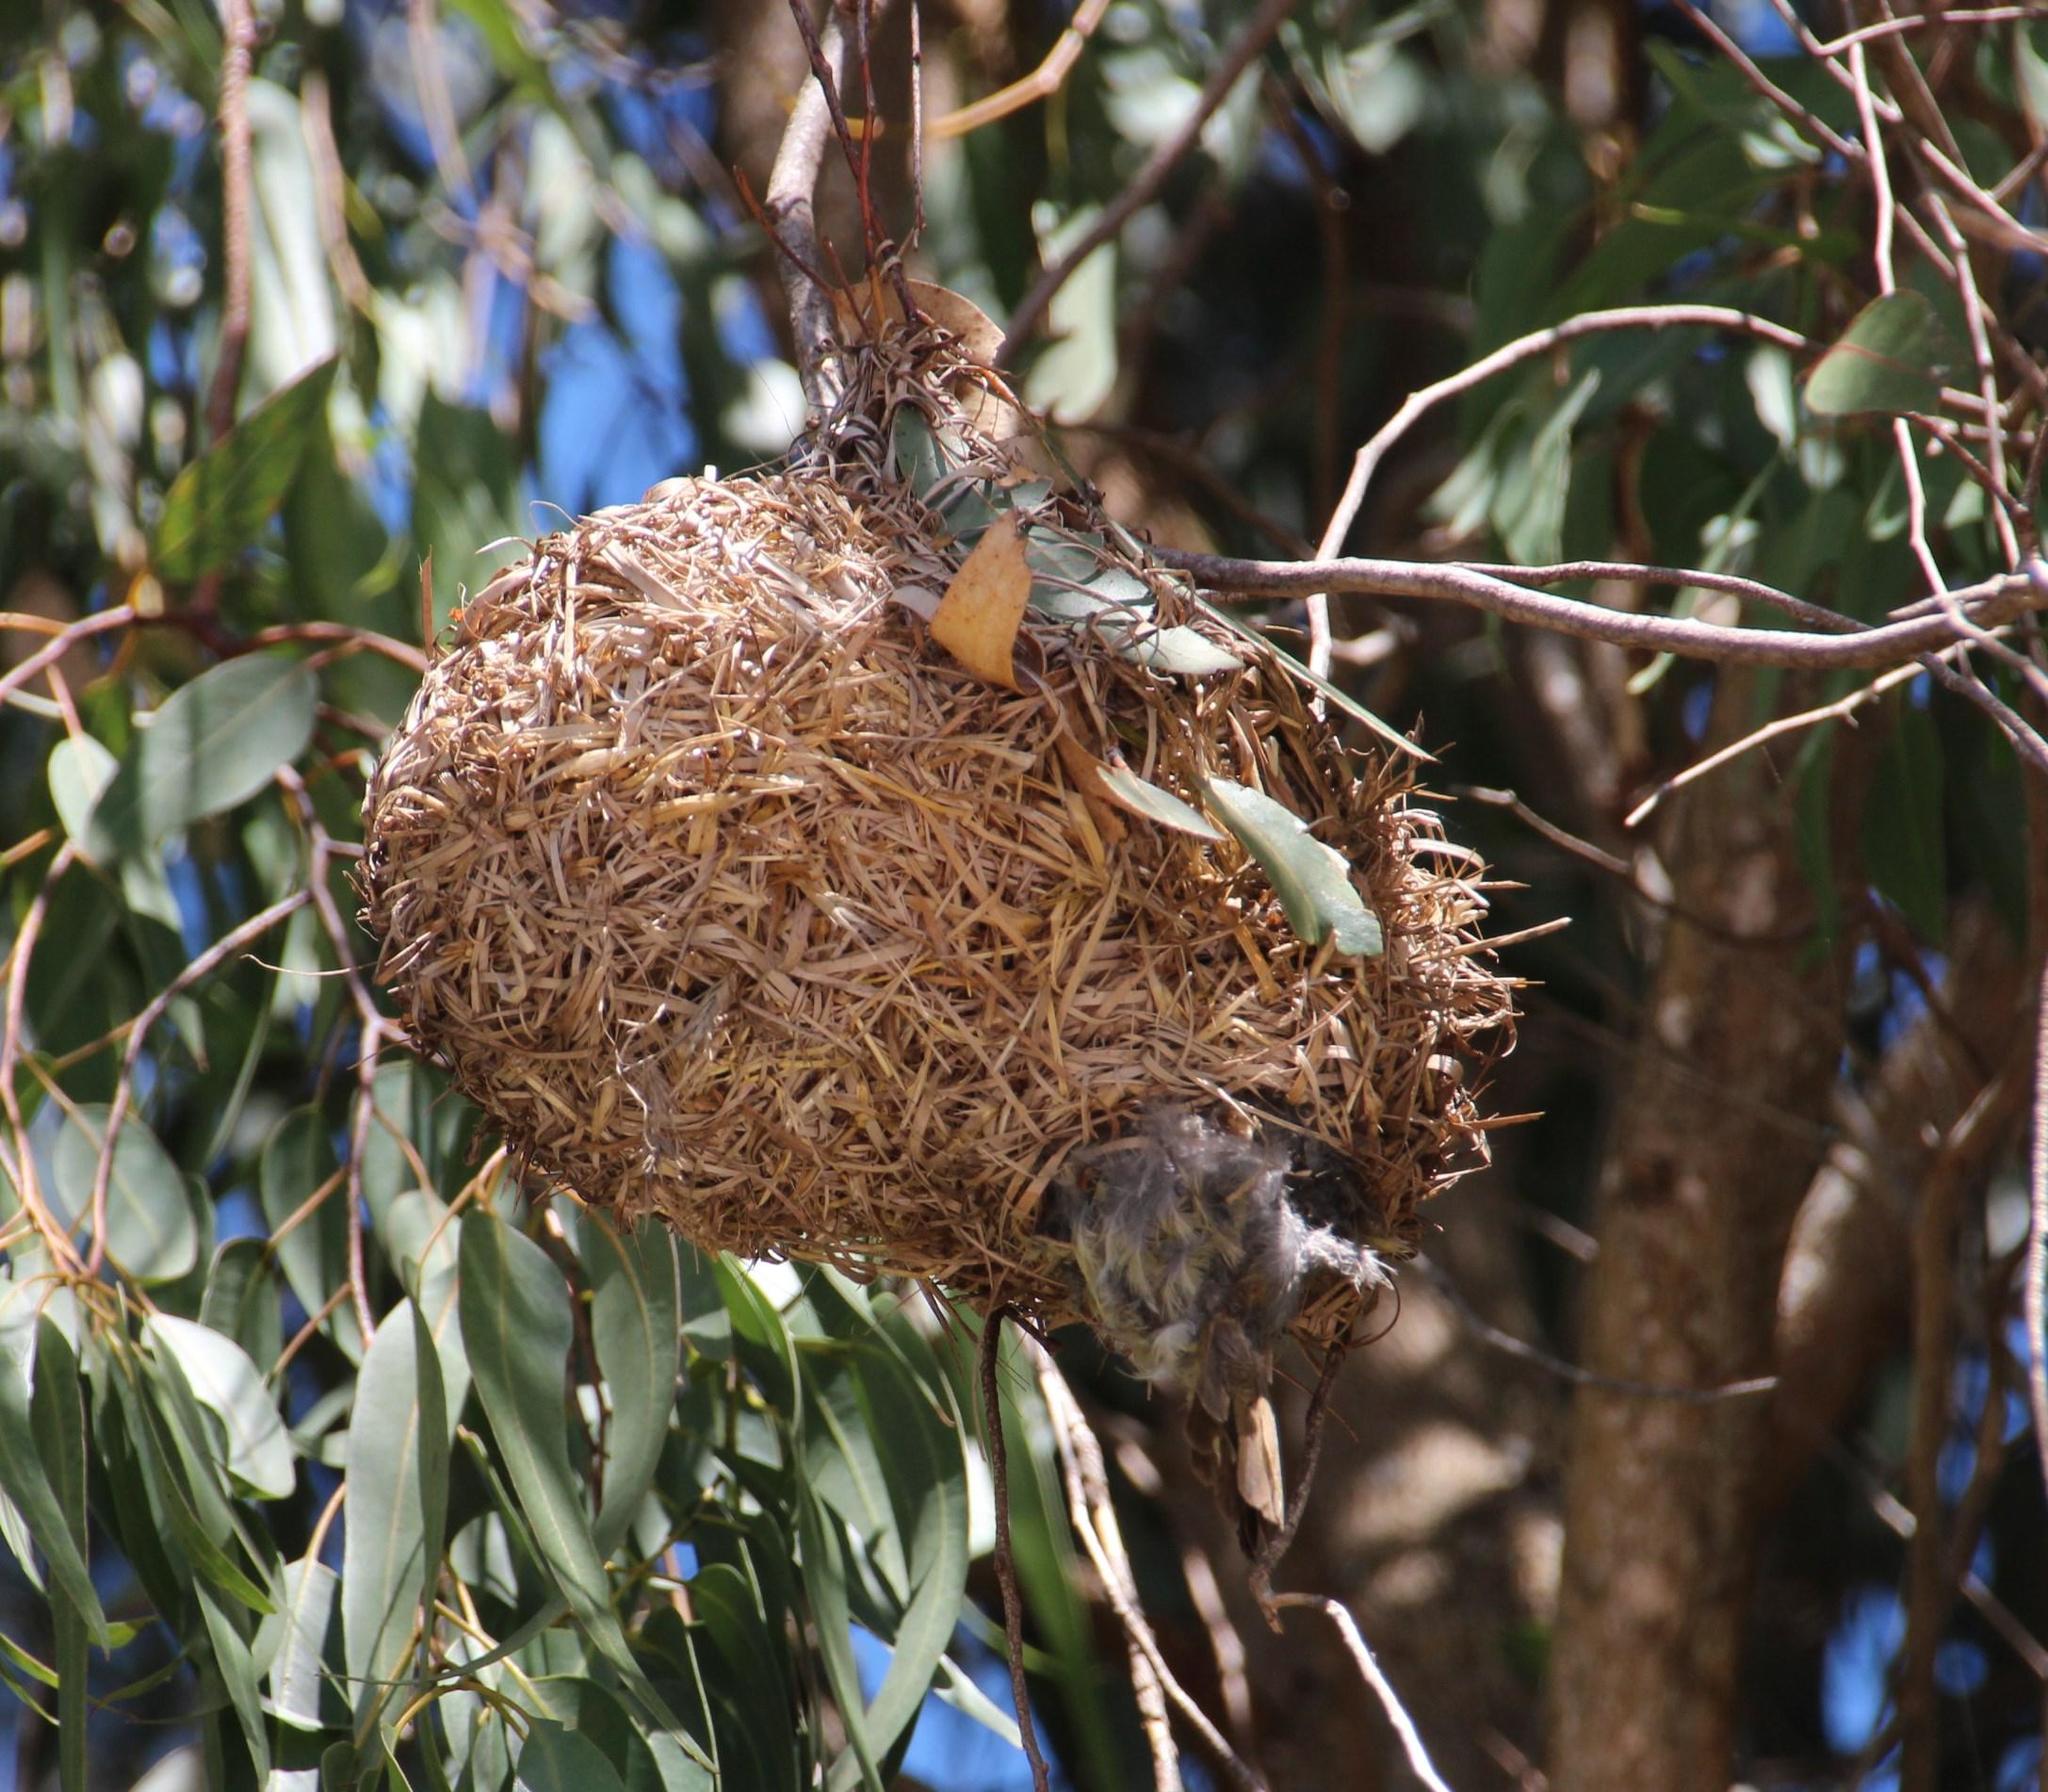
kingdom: Animalia
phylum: Chordata
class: Aves
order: Passeriformes
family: Ploceidae
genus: Ploceus
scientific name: Ploceus capensis
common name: Cape weaver
